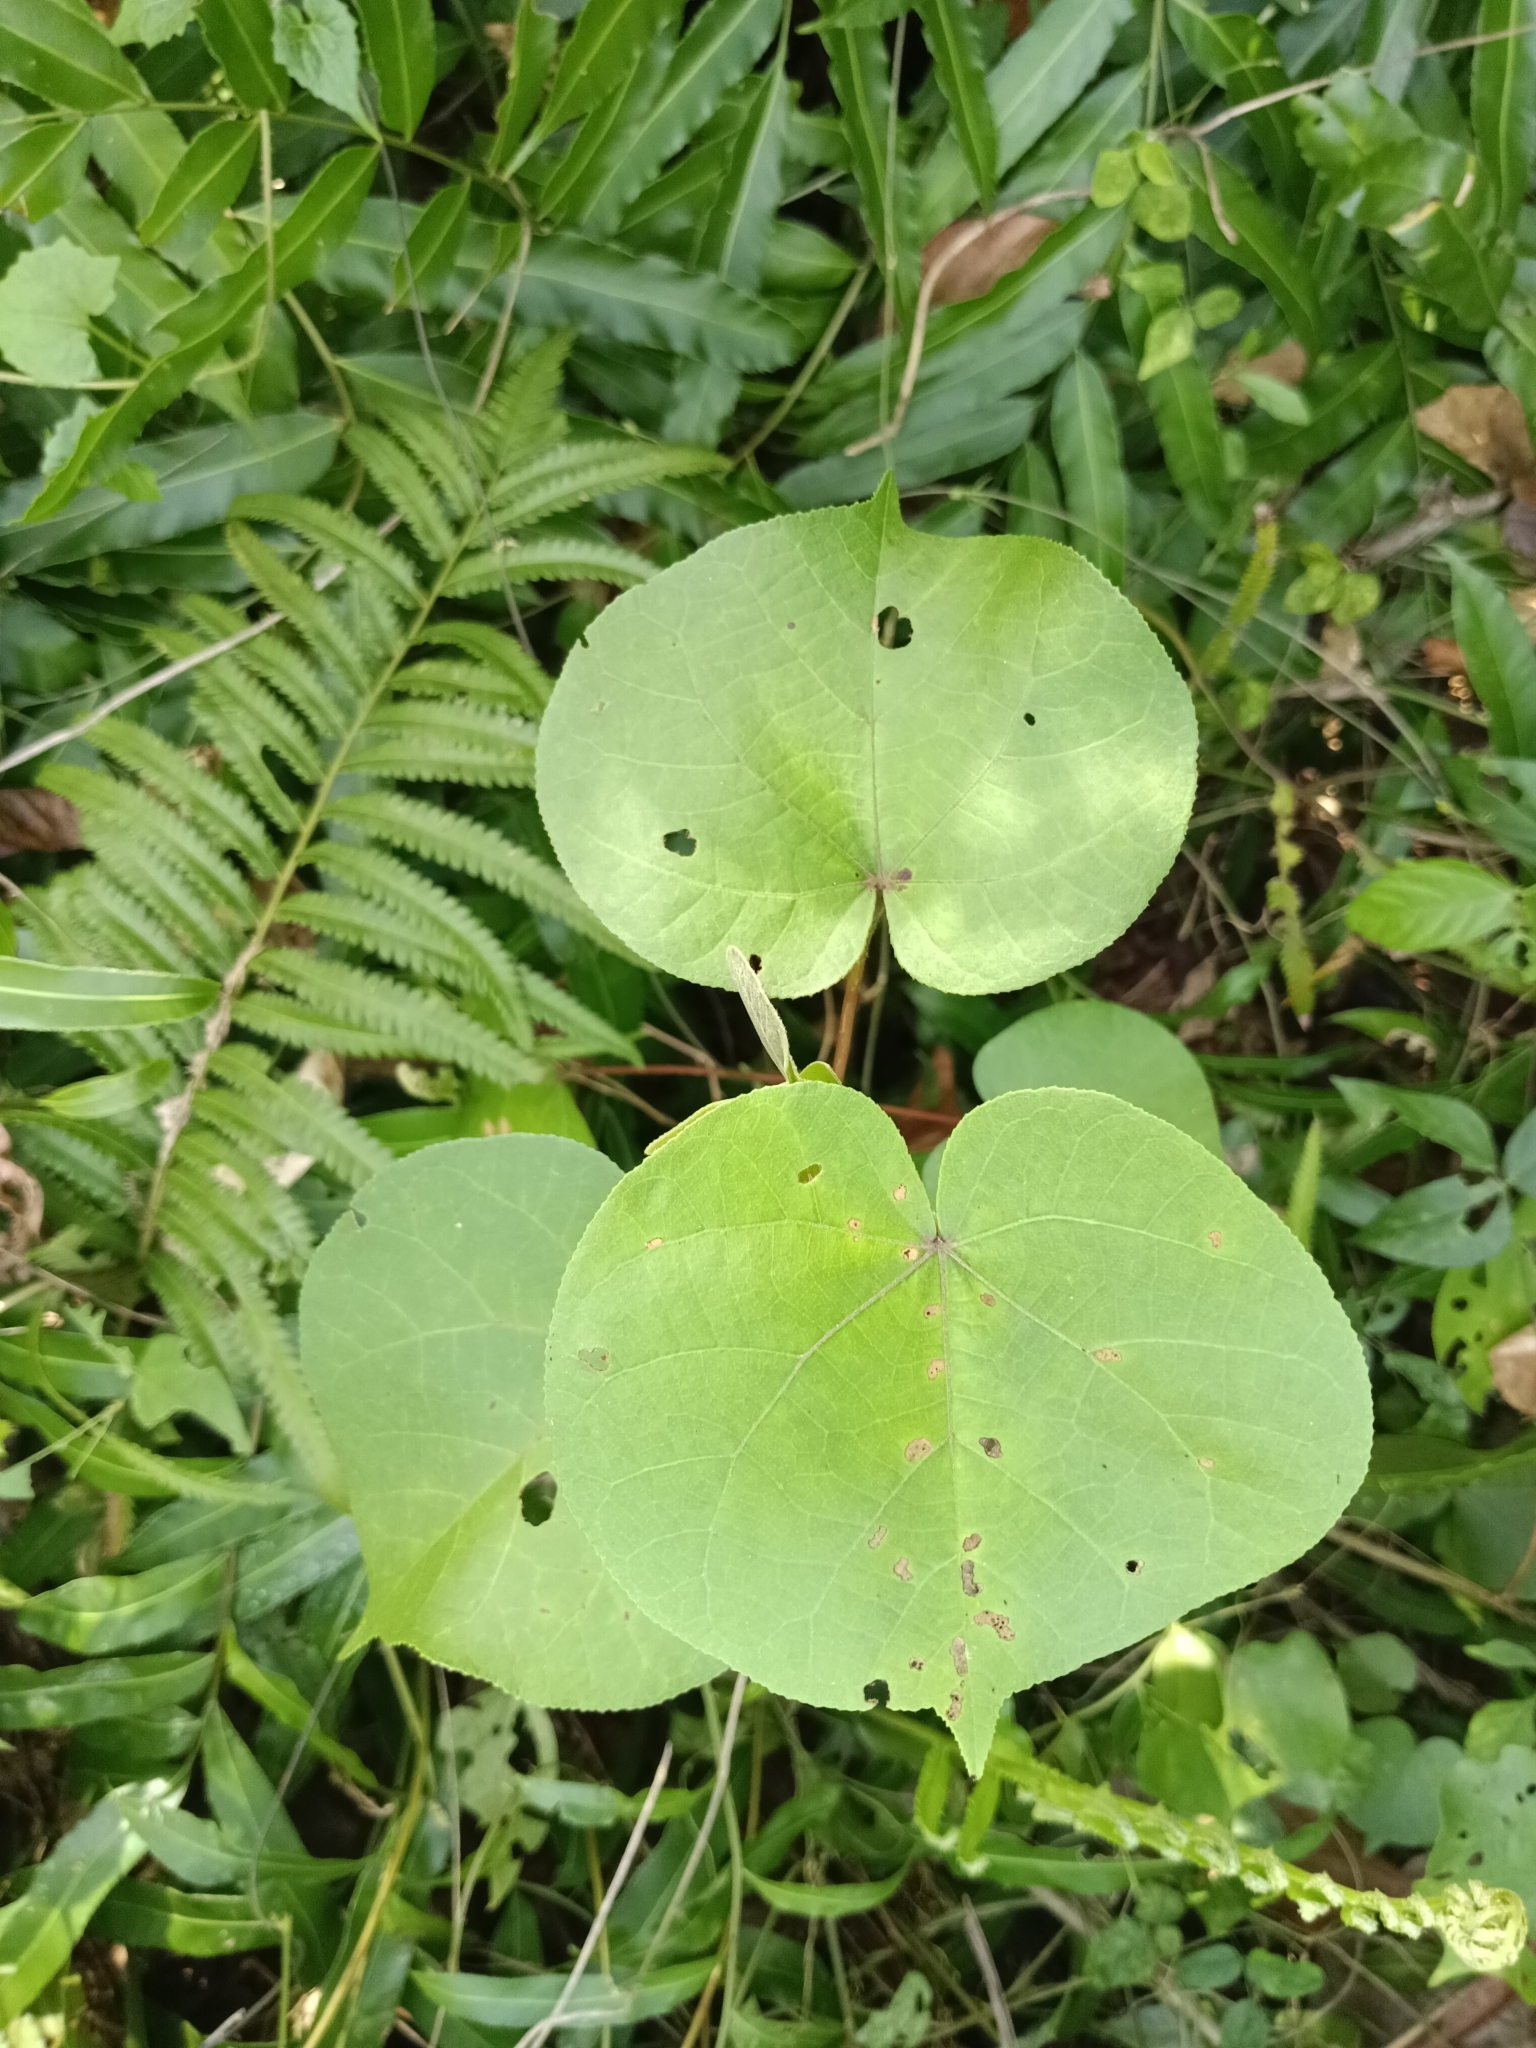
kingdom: Plantae
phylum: Tracheophyta
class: Magnoliopsida
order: Malvales
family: Malvaceae
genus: Talipariti
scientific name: Talipariti tiliaceum
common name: Sea hibiscus
